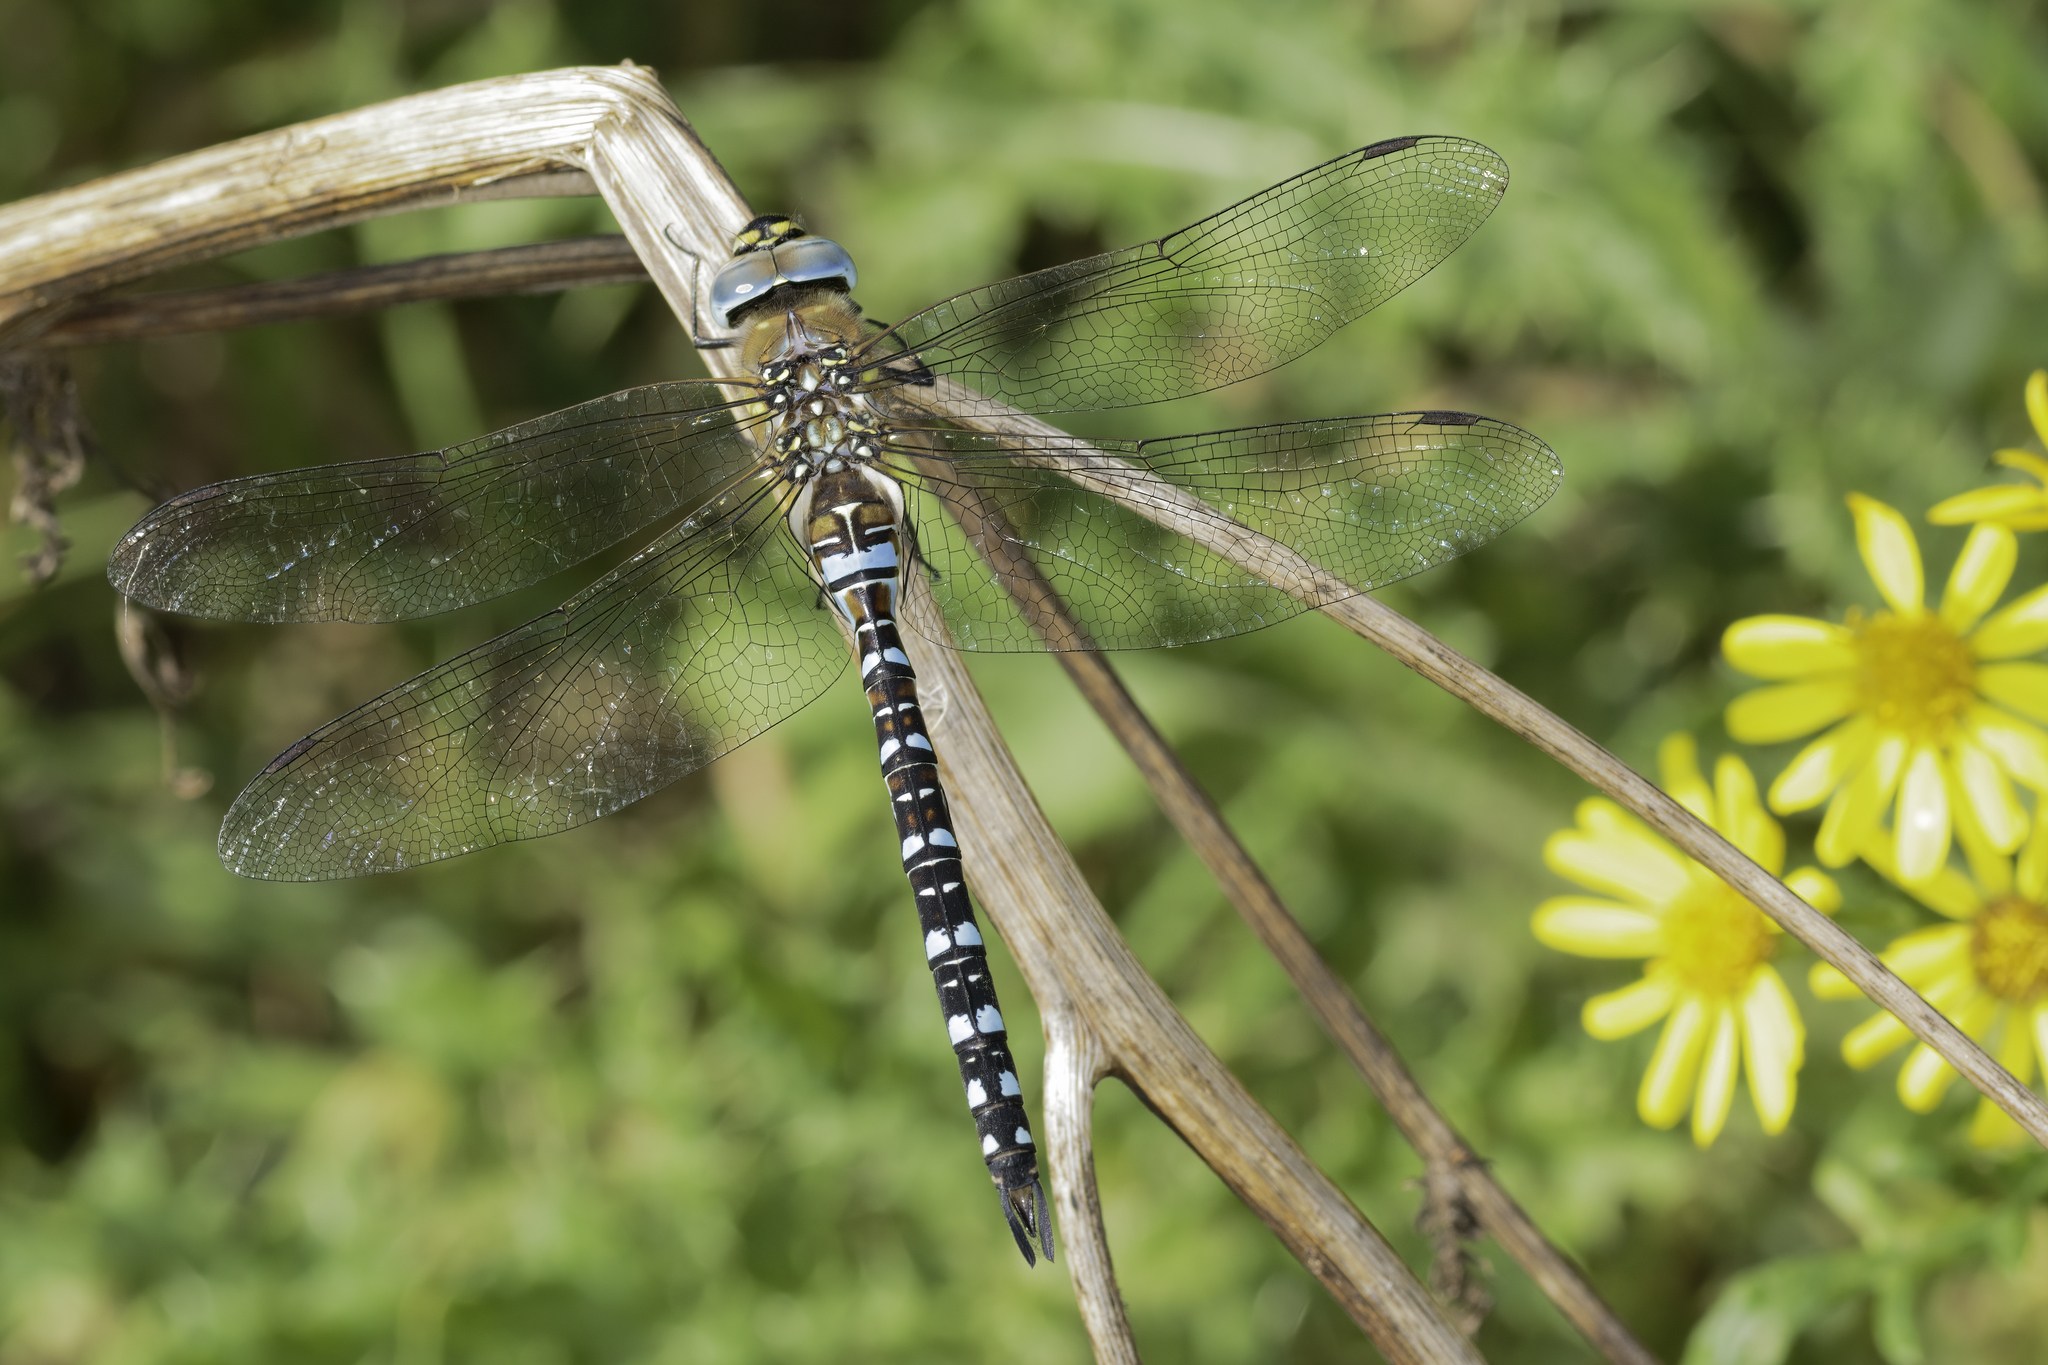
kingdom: Animalia
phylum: Arthropoda
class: Insecta
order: Odonata
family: Aeshnidae
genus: Aeshna
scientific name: Aeshna mixta
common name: Migrant hawker
